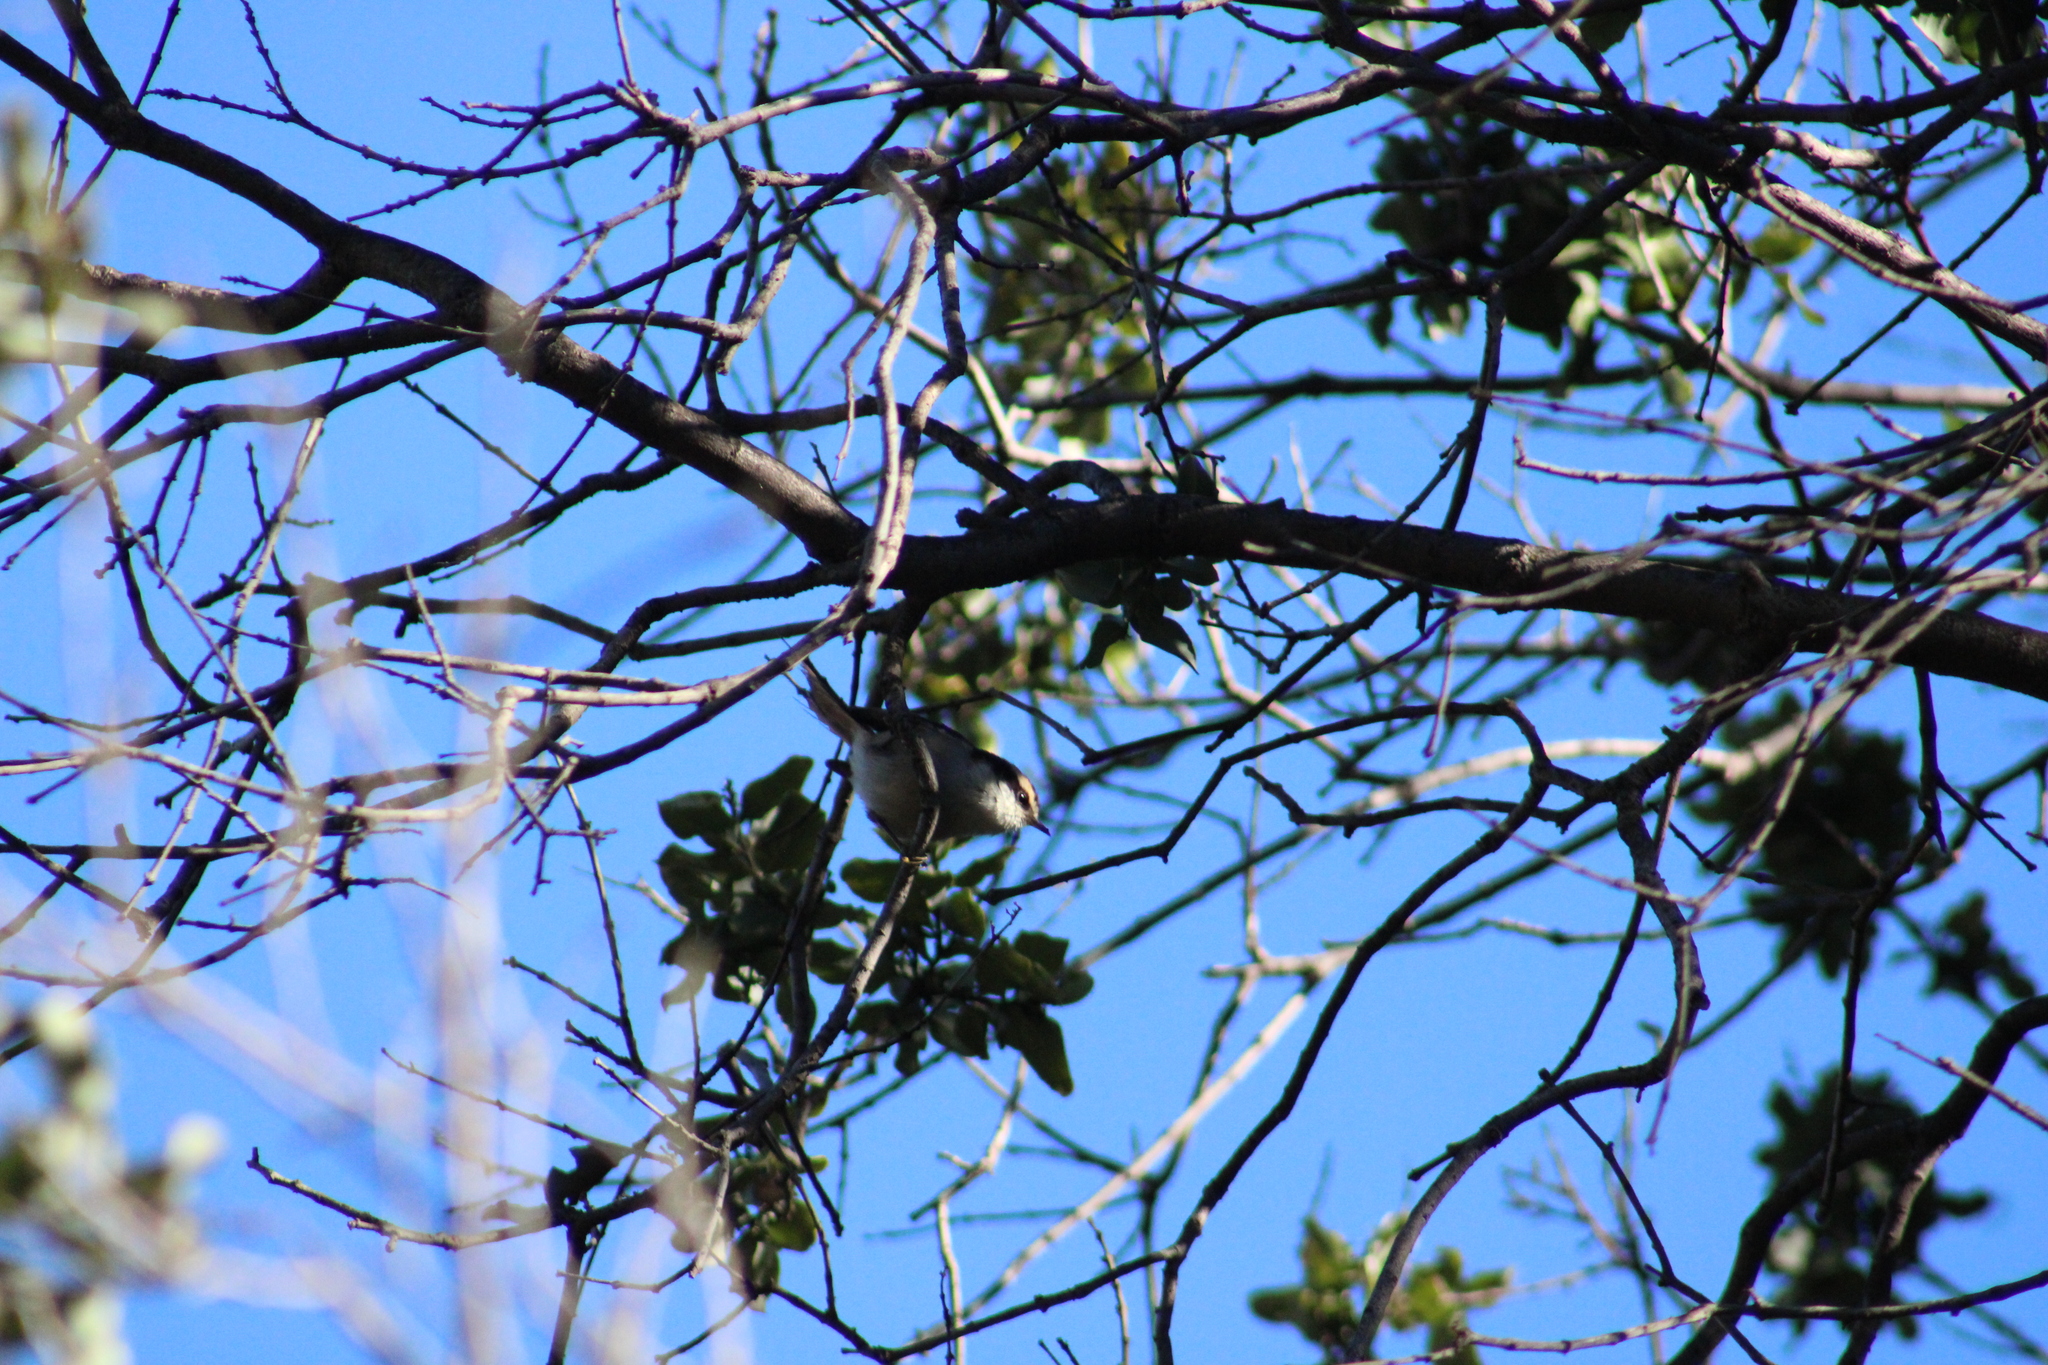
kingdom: Animalia
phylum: Chordata
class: Aves
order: Passeriformes
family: Furnariidae
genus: Aphrastura
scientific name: Aphrastura spinicauda
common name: Thorn-tailed rayadito
